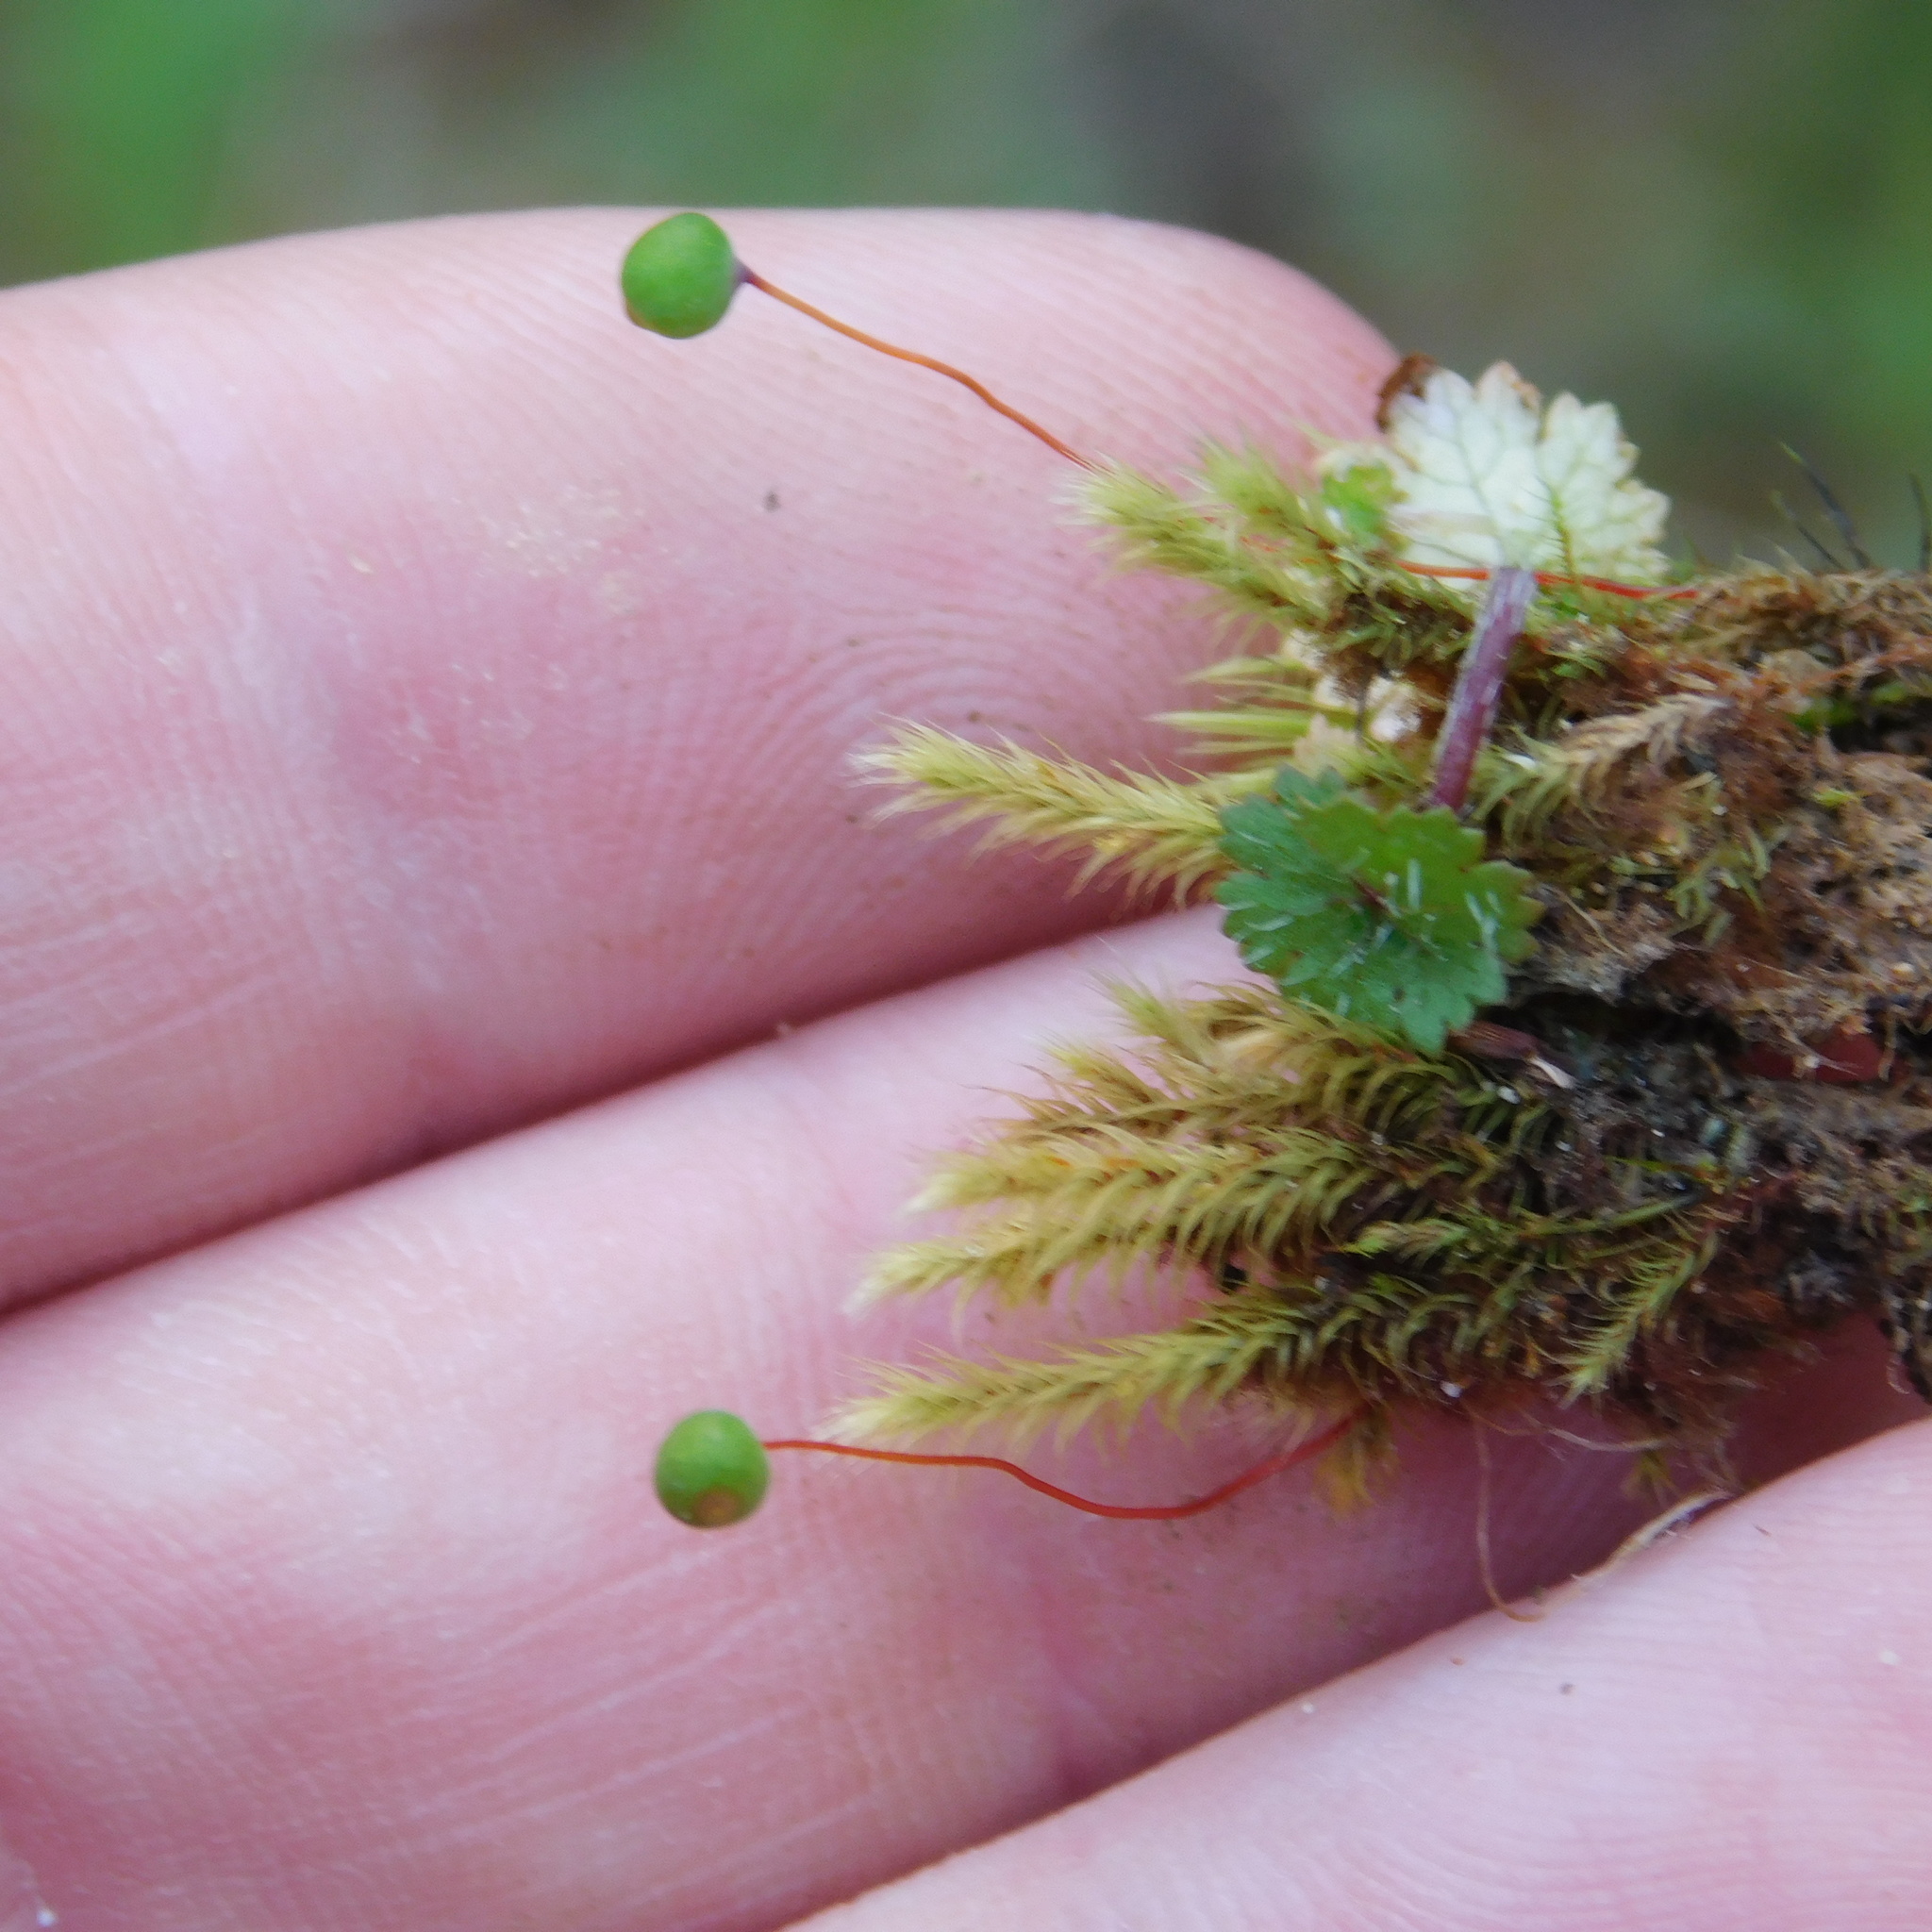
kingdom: Plantae
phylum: Bryophyta
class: Bryopsida
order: Bartramiales
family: Bartramiaceae
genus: Philonotis
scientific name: Philonotis tenuis
